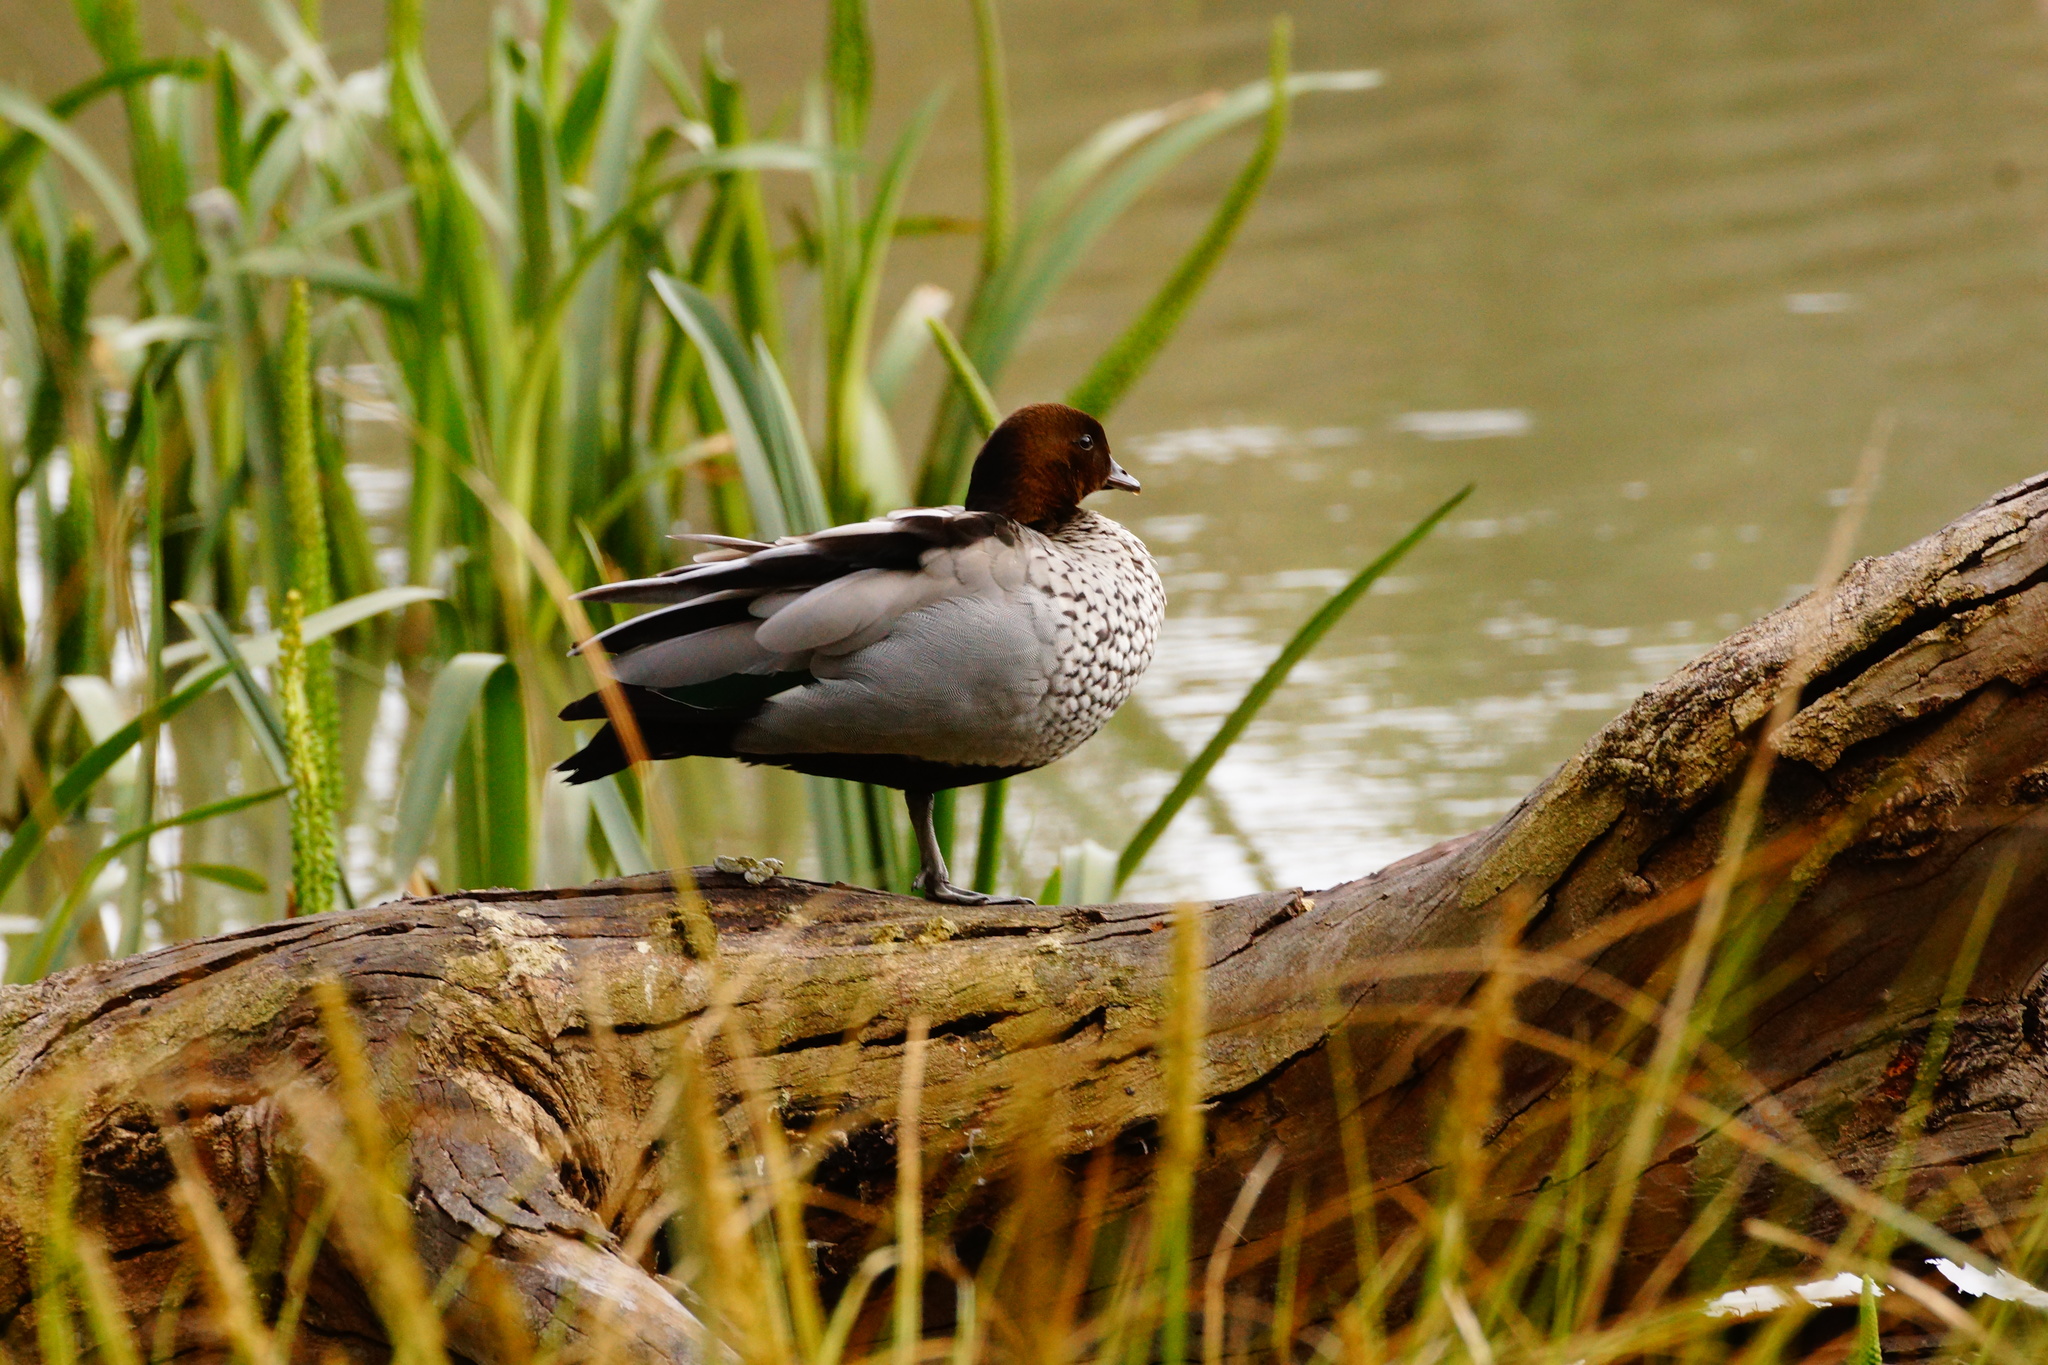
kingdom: Animalia
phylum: Chordata
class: Aves
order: Anseriformes
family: Anatidae
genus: Chenonetta
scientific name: Chenonetta jubata
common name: Maned duck
